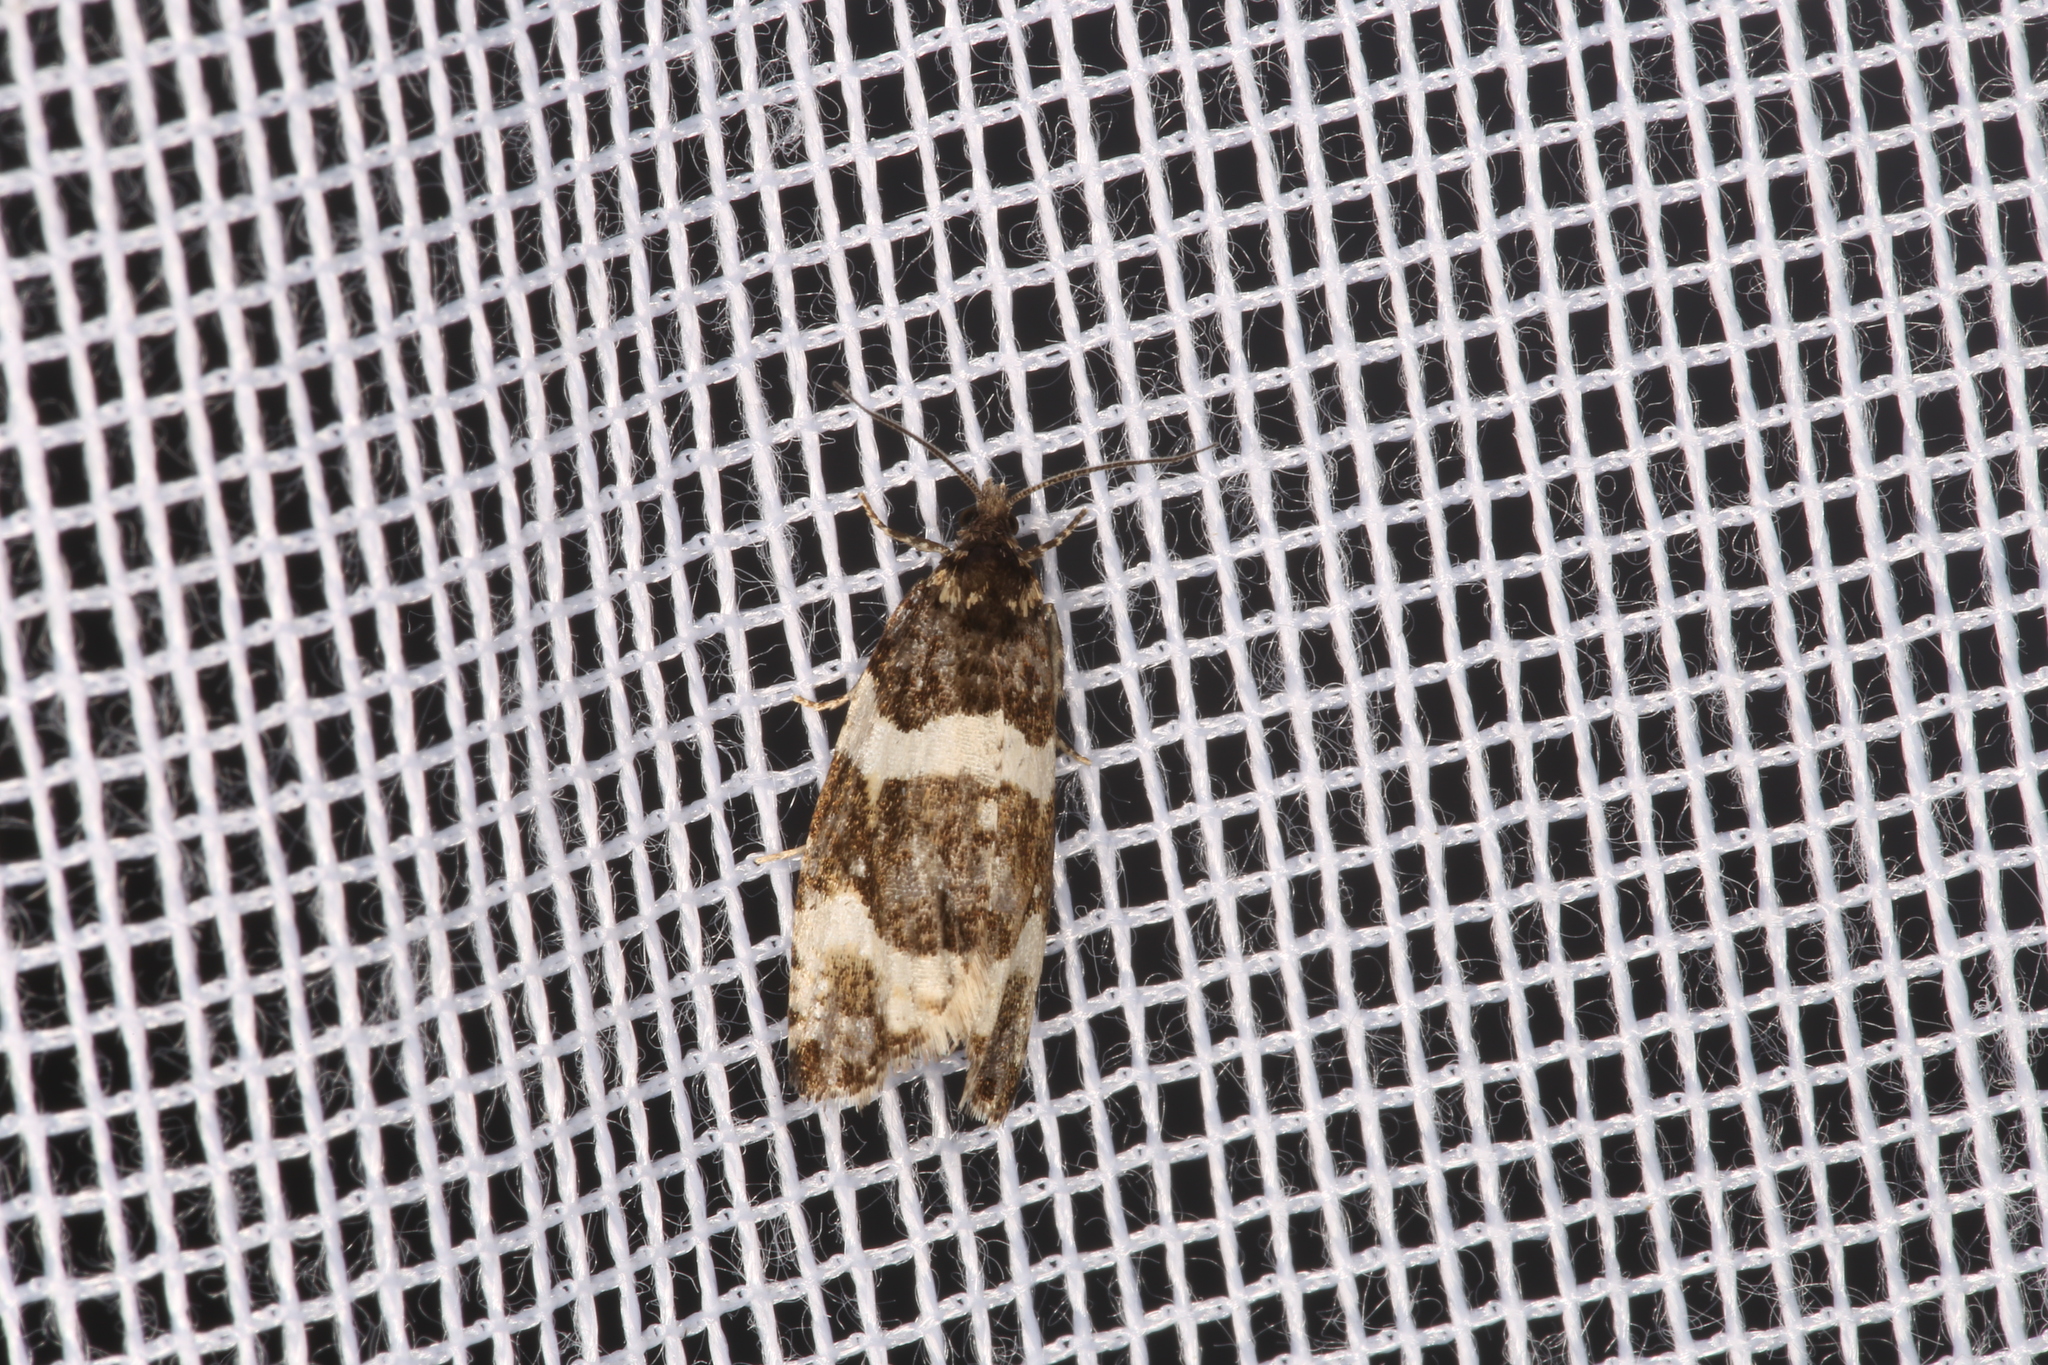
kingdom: Animalia
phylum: Arthropoda
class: Insecta
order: Lepidoptera
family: Tortricidae
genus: Argyroploce
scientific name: Argyroploce bipunctana
